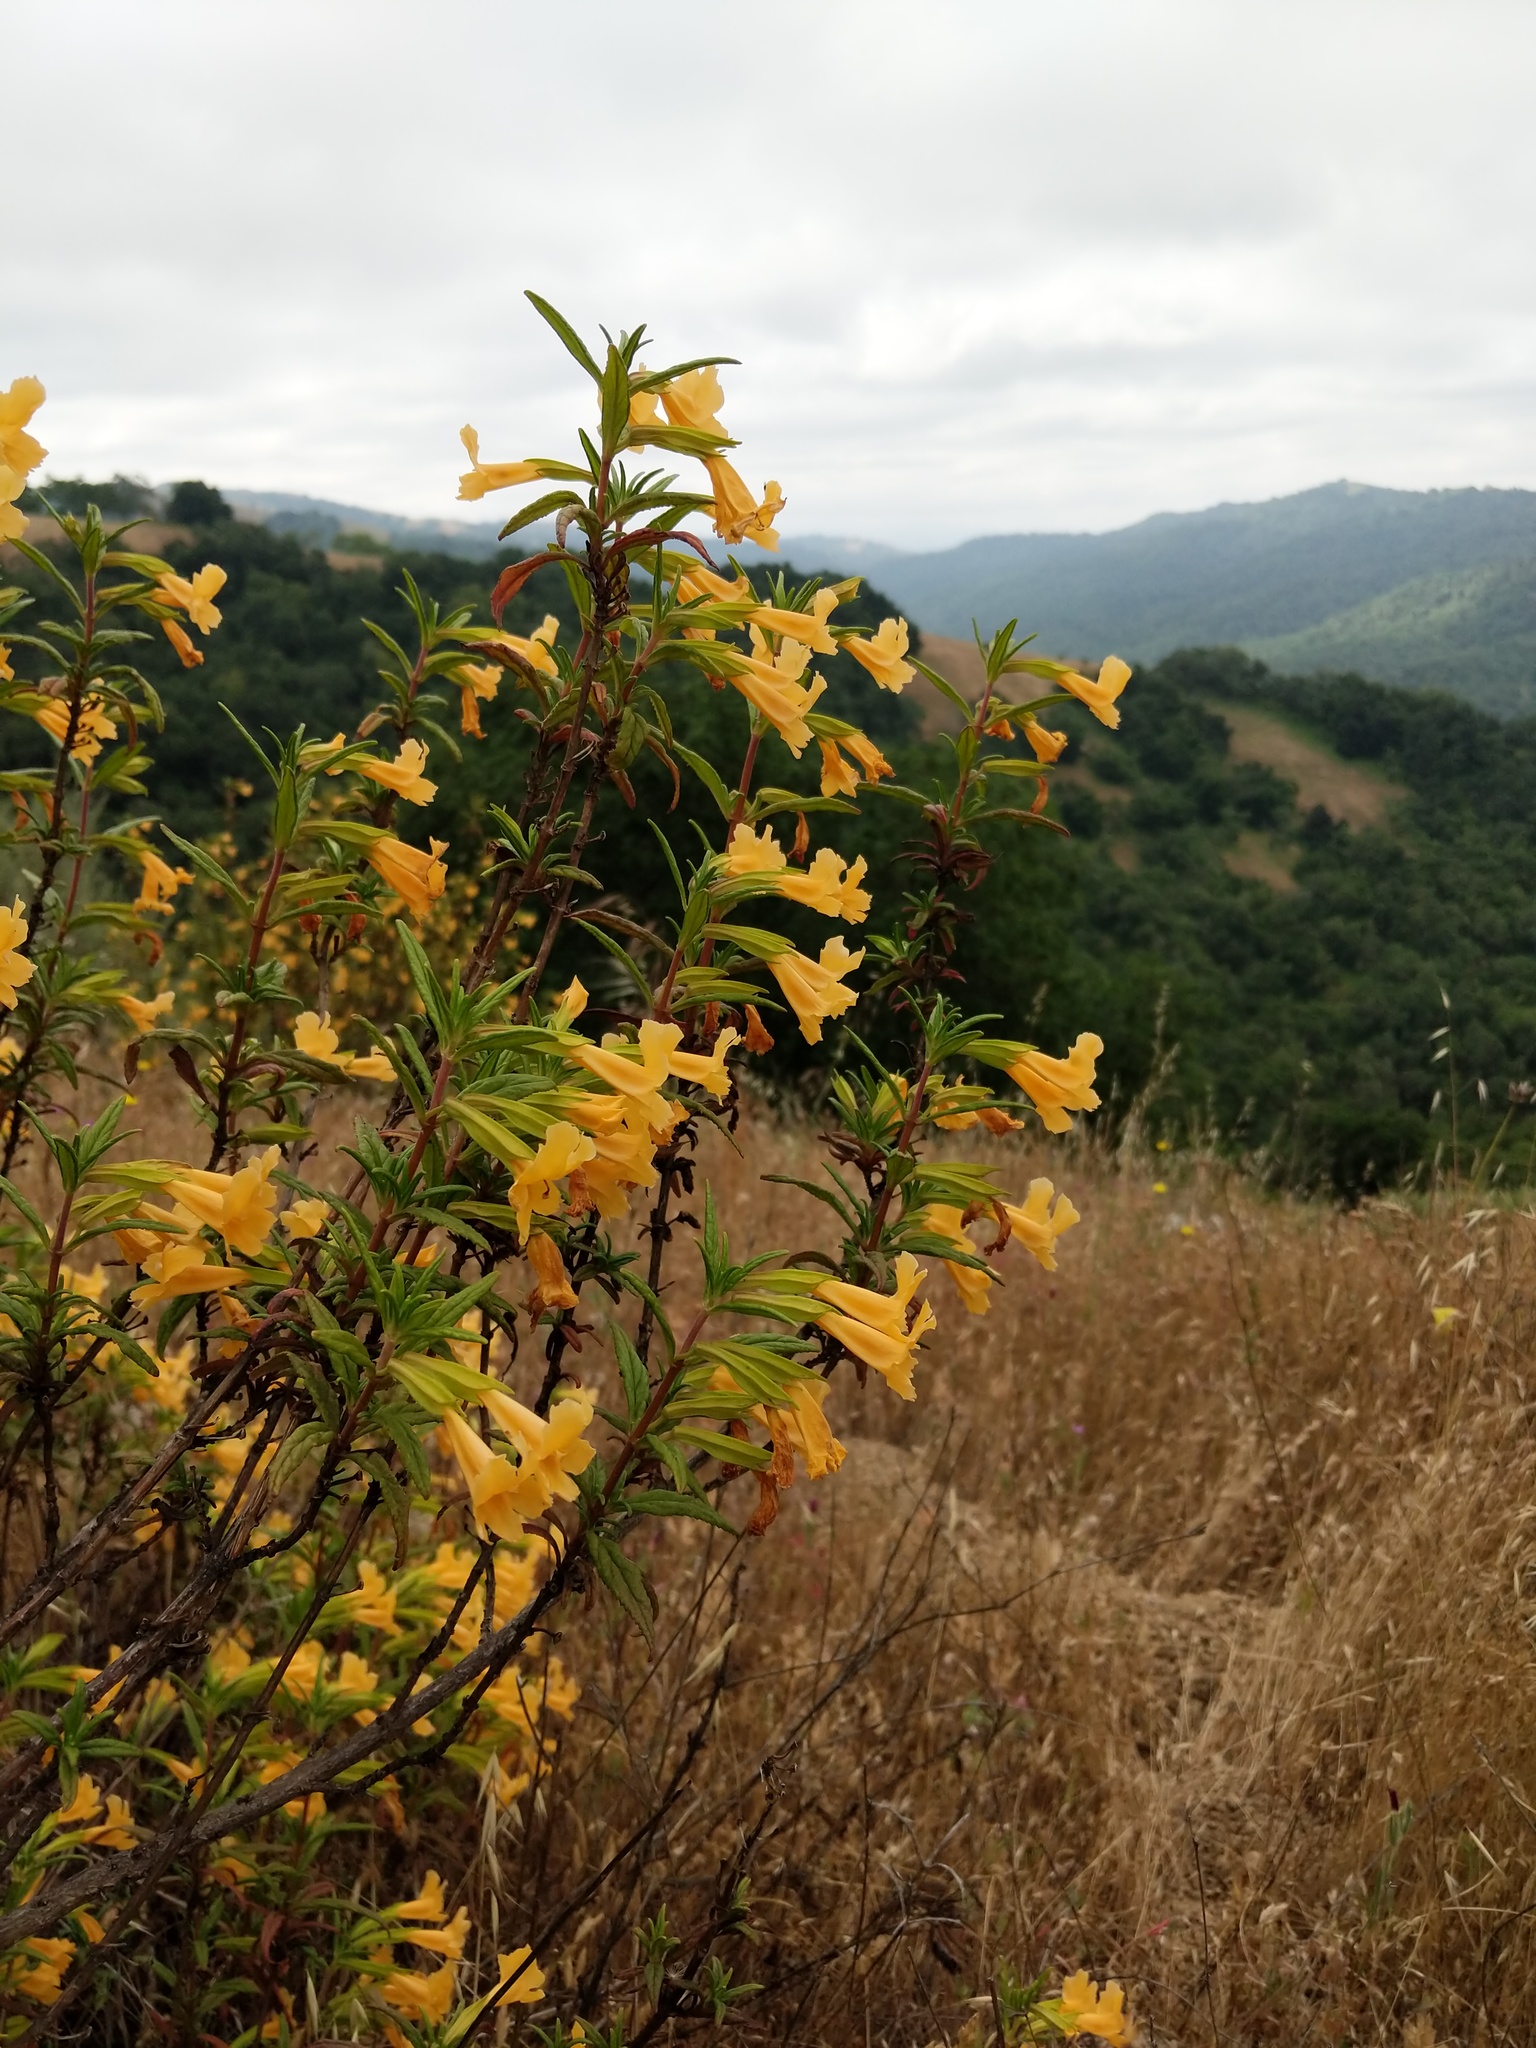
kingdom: Plantae
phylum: Tracheophyta
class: Magnoliopsida
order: Lamiales
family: Phrymaceae
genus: Diplacus
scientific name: Diplacus aurantiacus
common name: Bush monkey-flower
